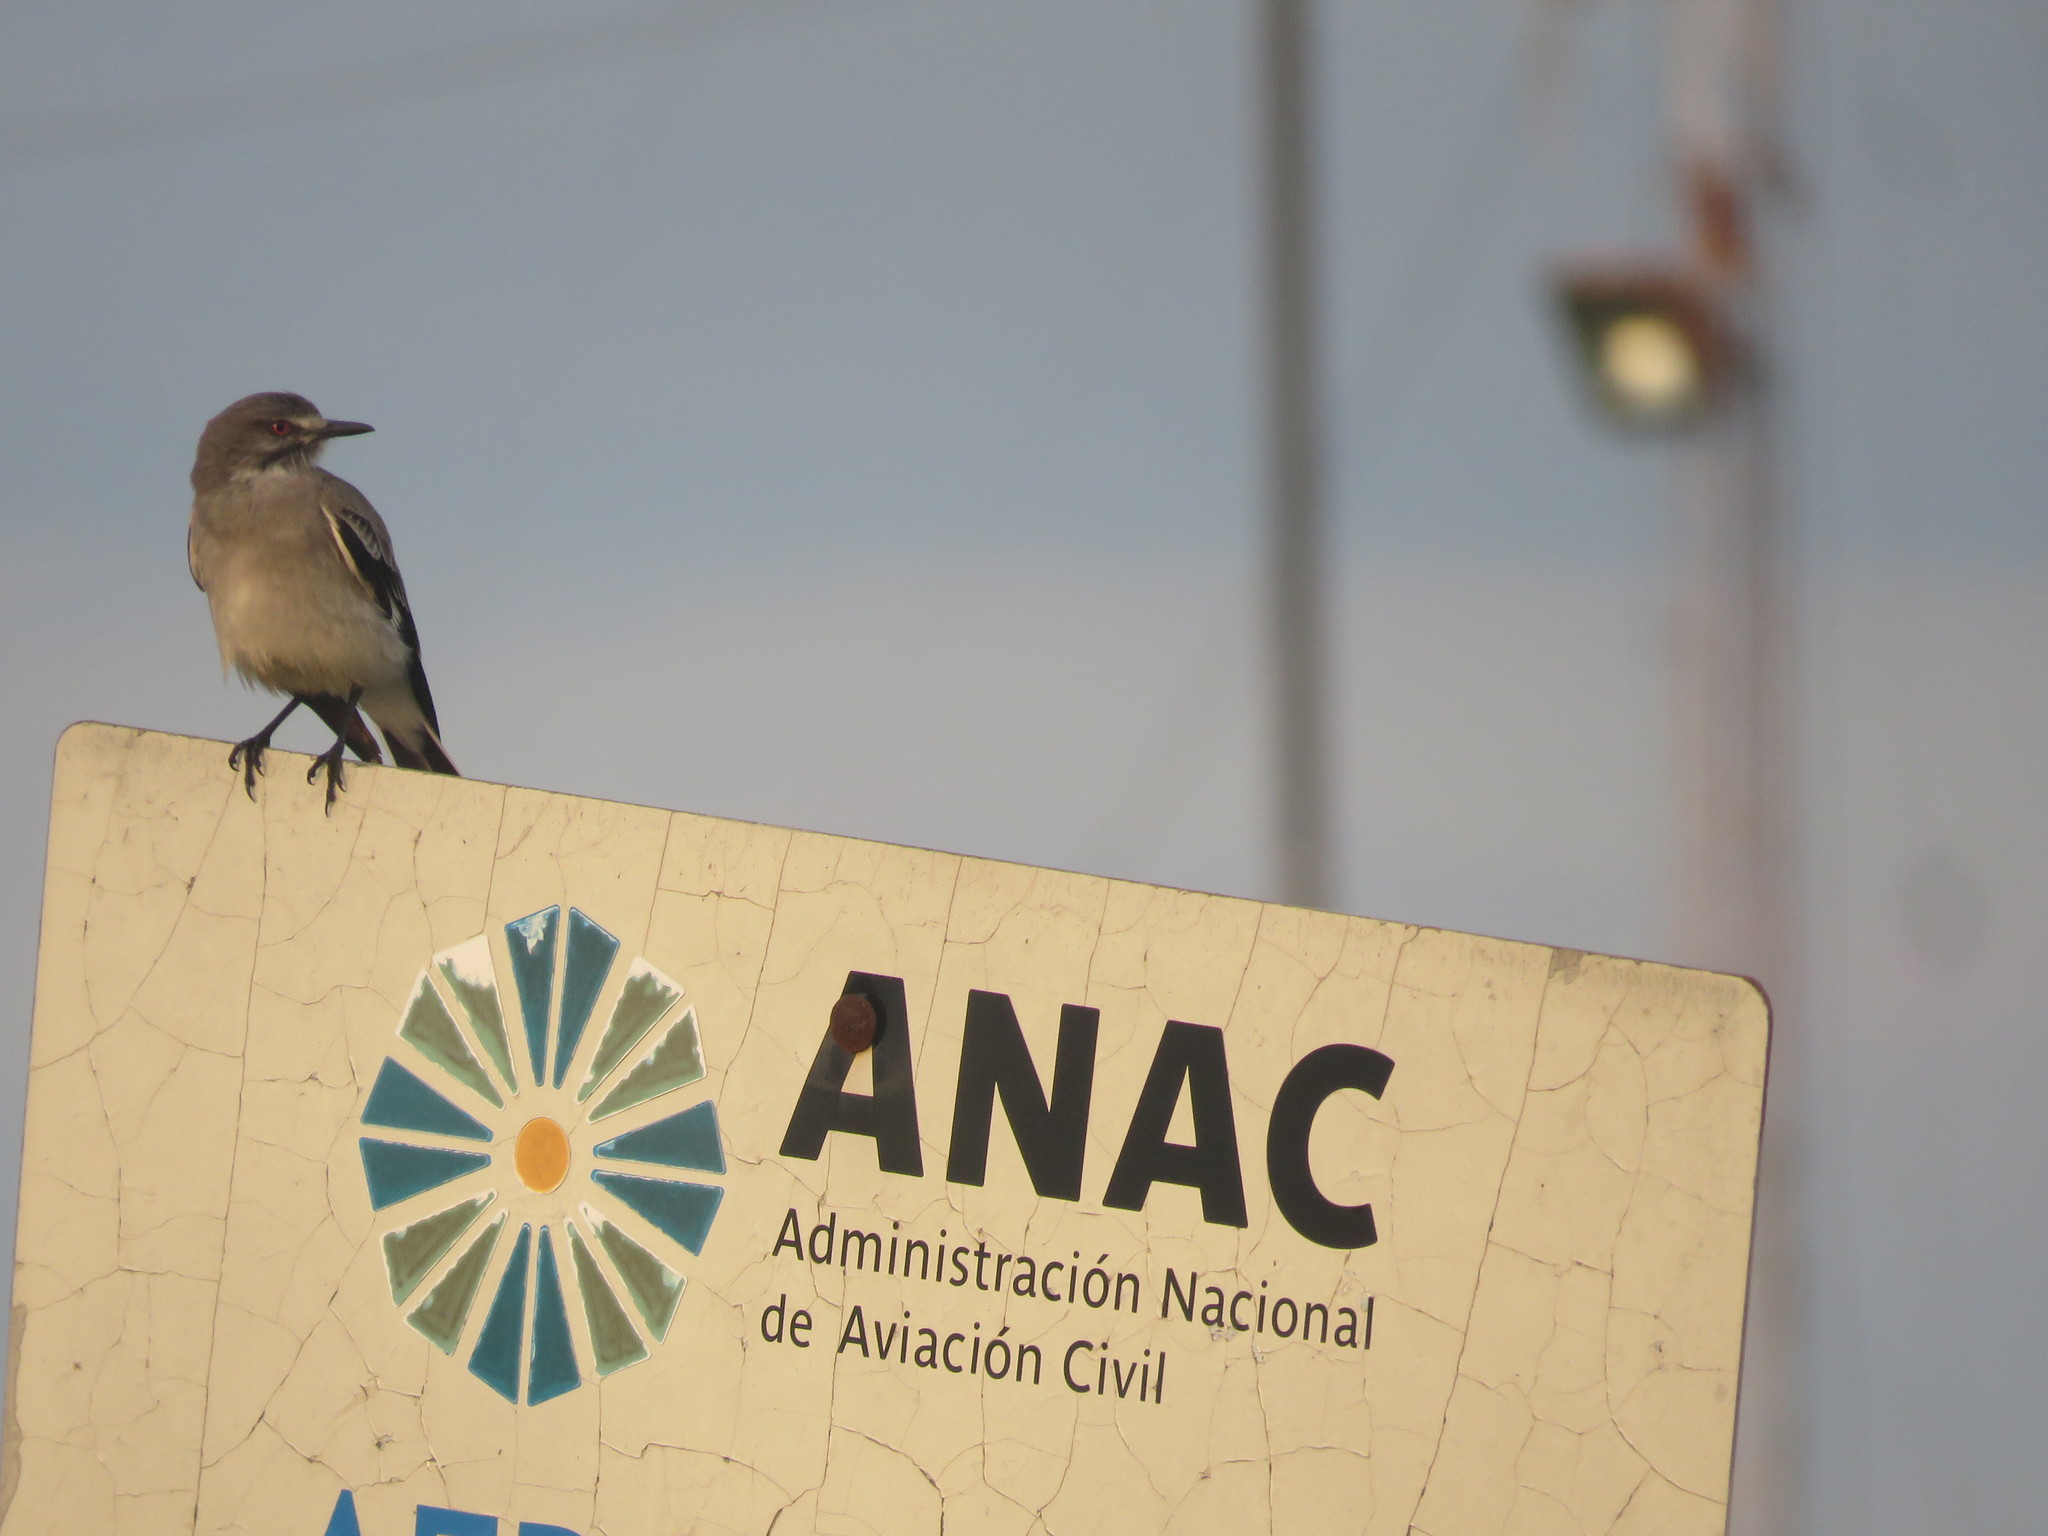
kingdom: Animalia
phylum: Chordata
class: Aves
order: Passeriformes
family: Tyrannidae
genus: Xolmis
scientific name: Xolmis cinereus
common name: Grey monjita
